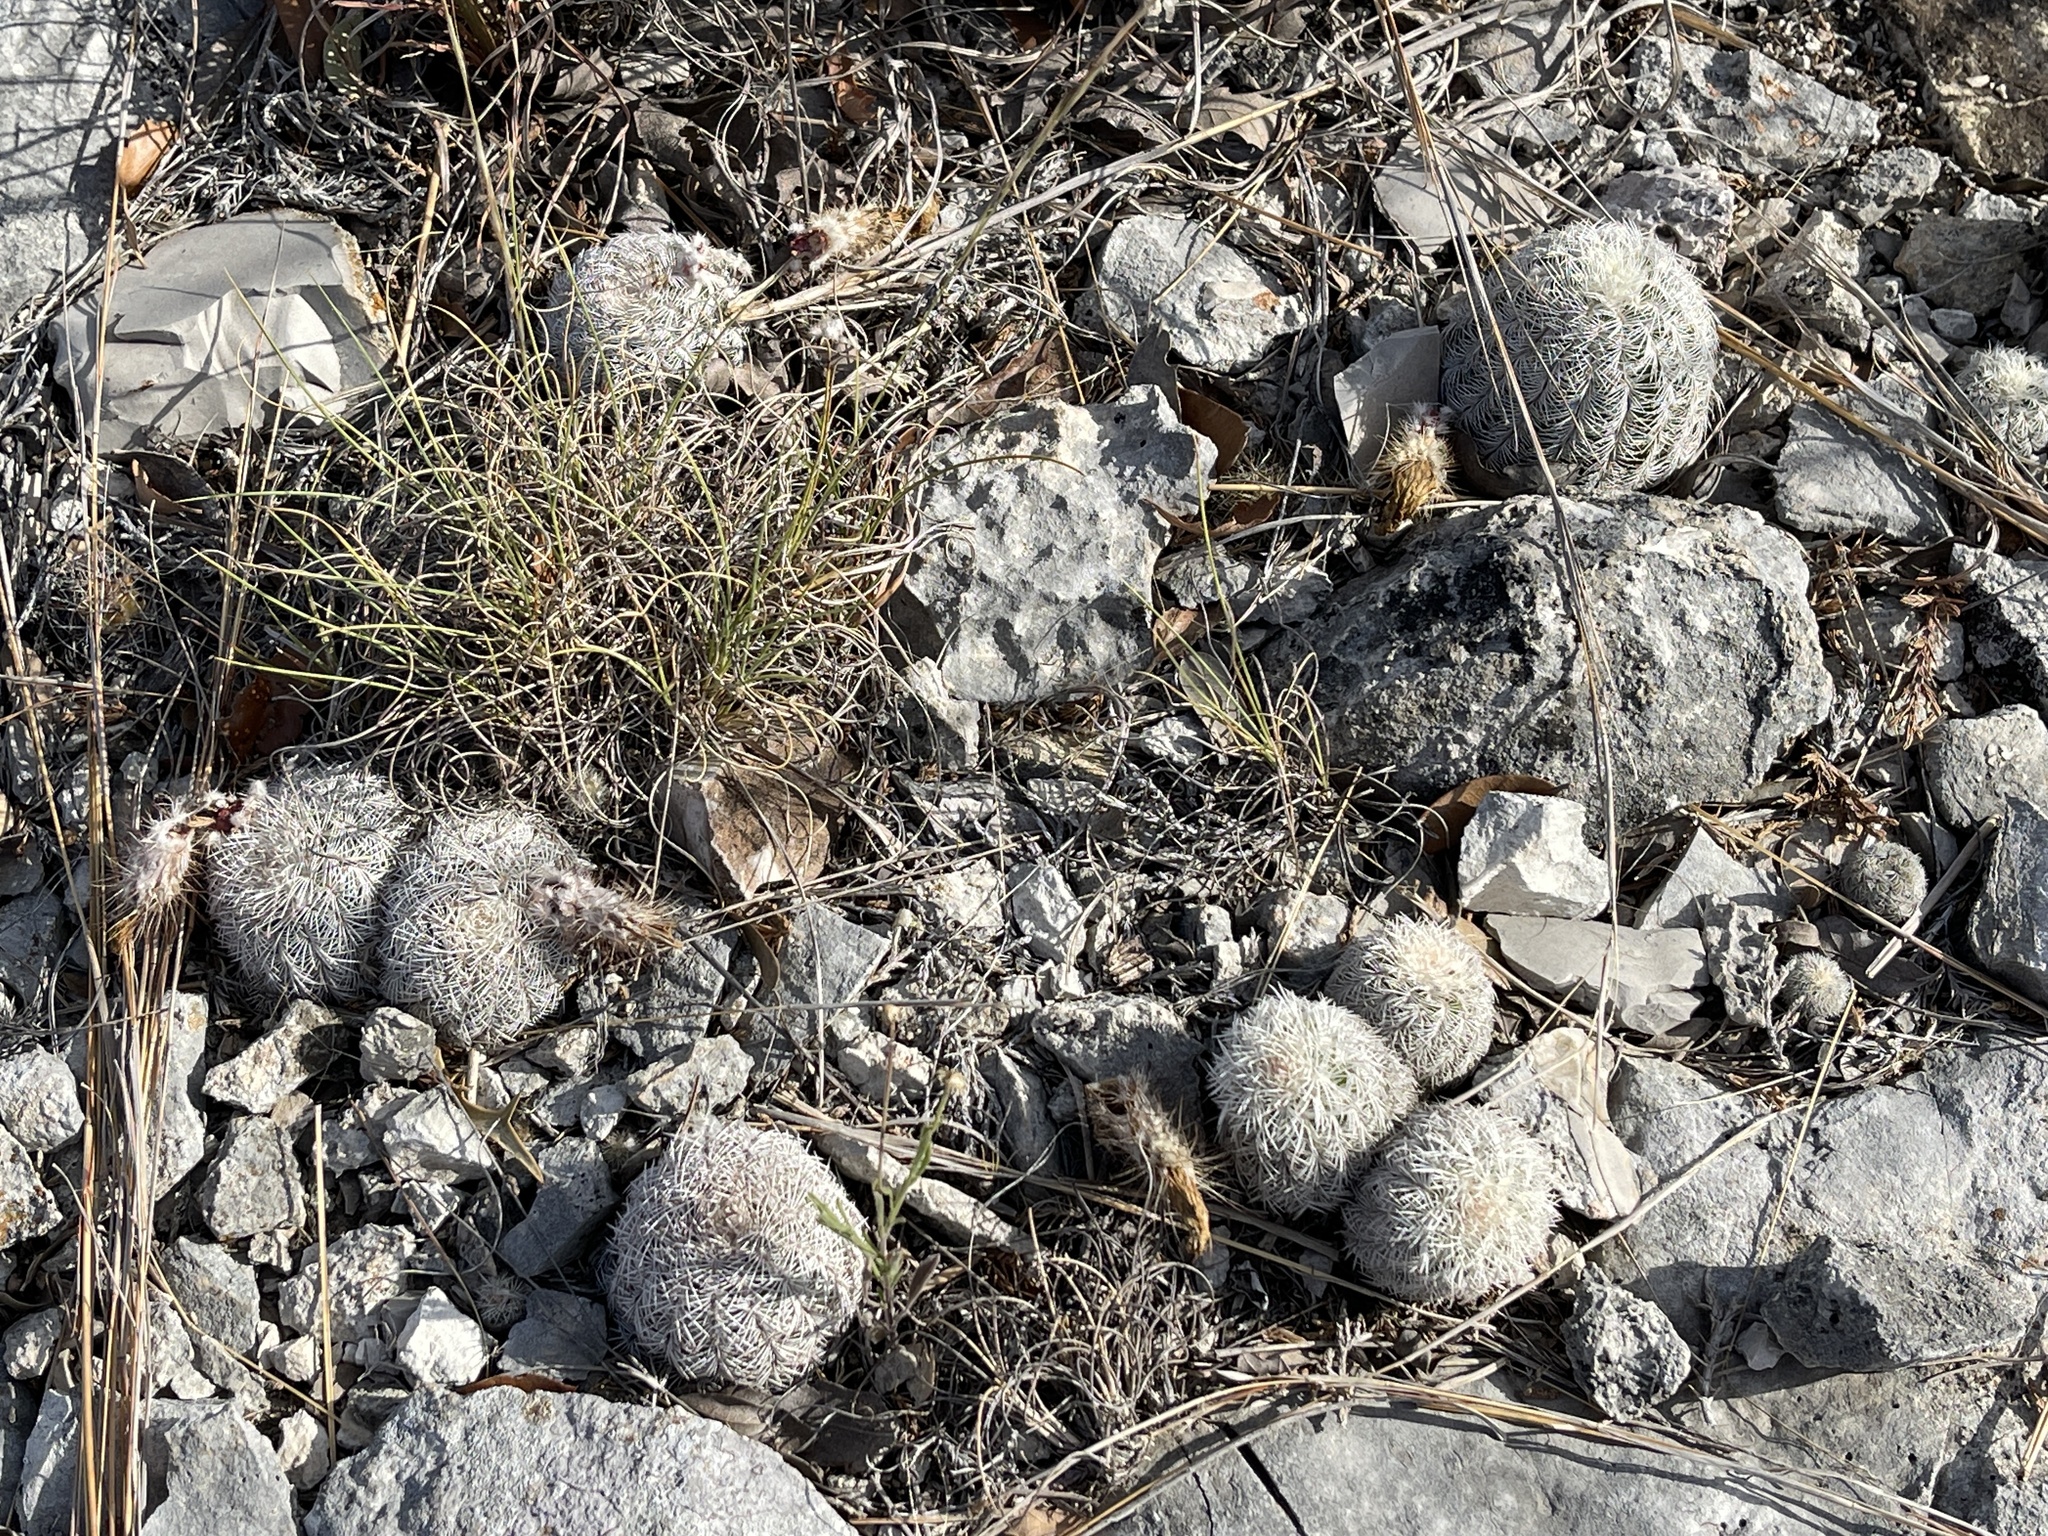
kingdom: Plantae
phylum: Tracheophyta
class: Magnoliopsida
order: Caryophyllales
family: Cactaceae
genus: Echinocereus
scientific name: Echinocereus reichenbachii
